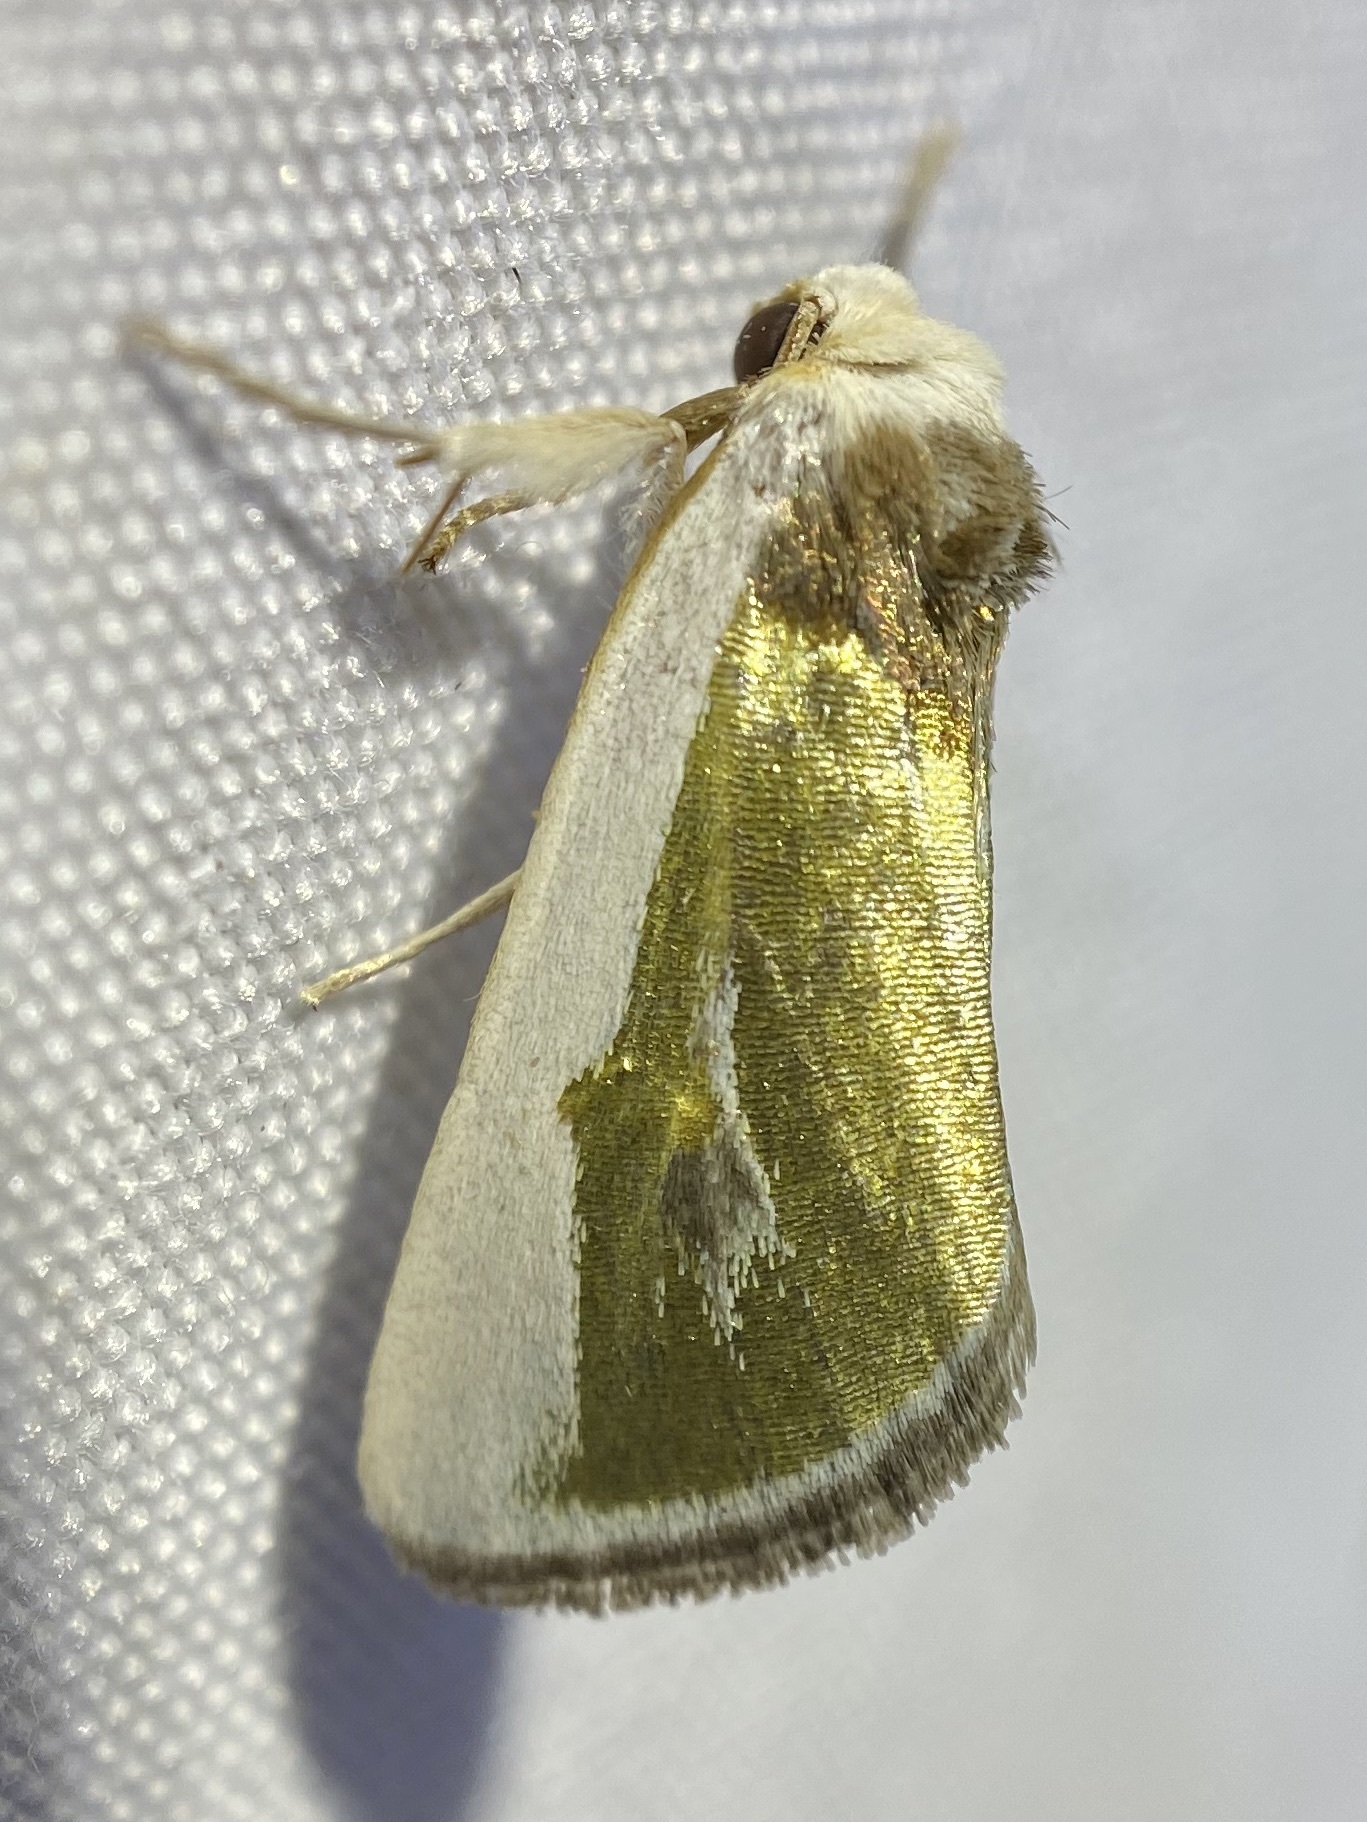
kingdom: Animalia
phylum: Arthropoda
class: Insecta
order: Lepidoptera
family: Noctuidae
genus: Neumoegenia
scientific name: Neumoegenia poetica
